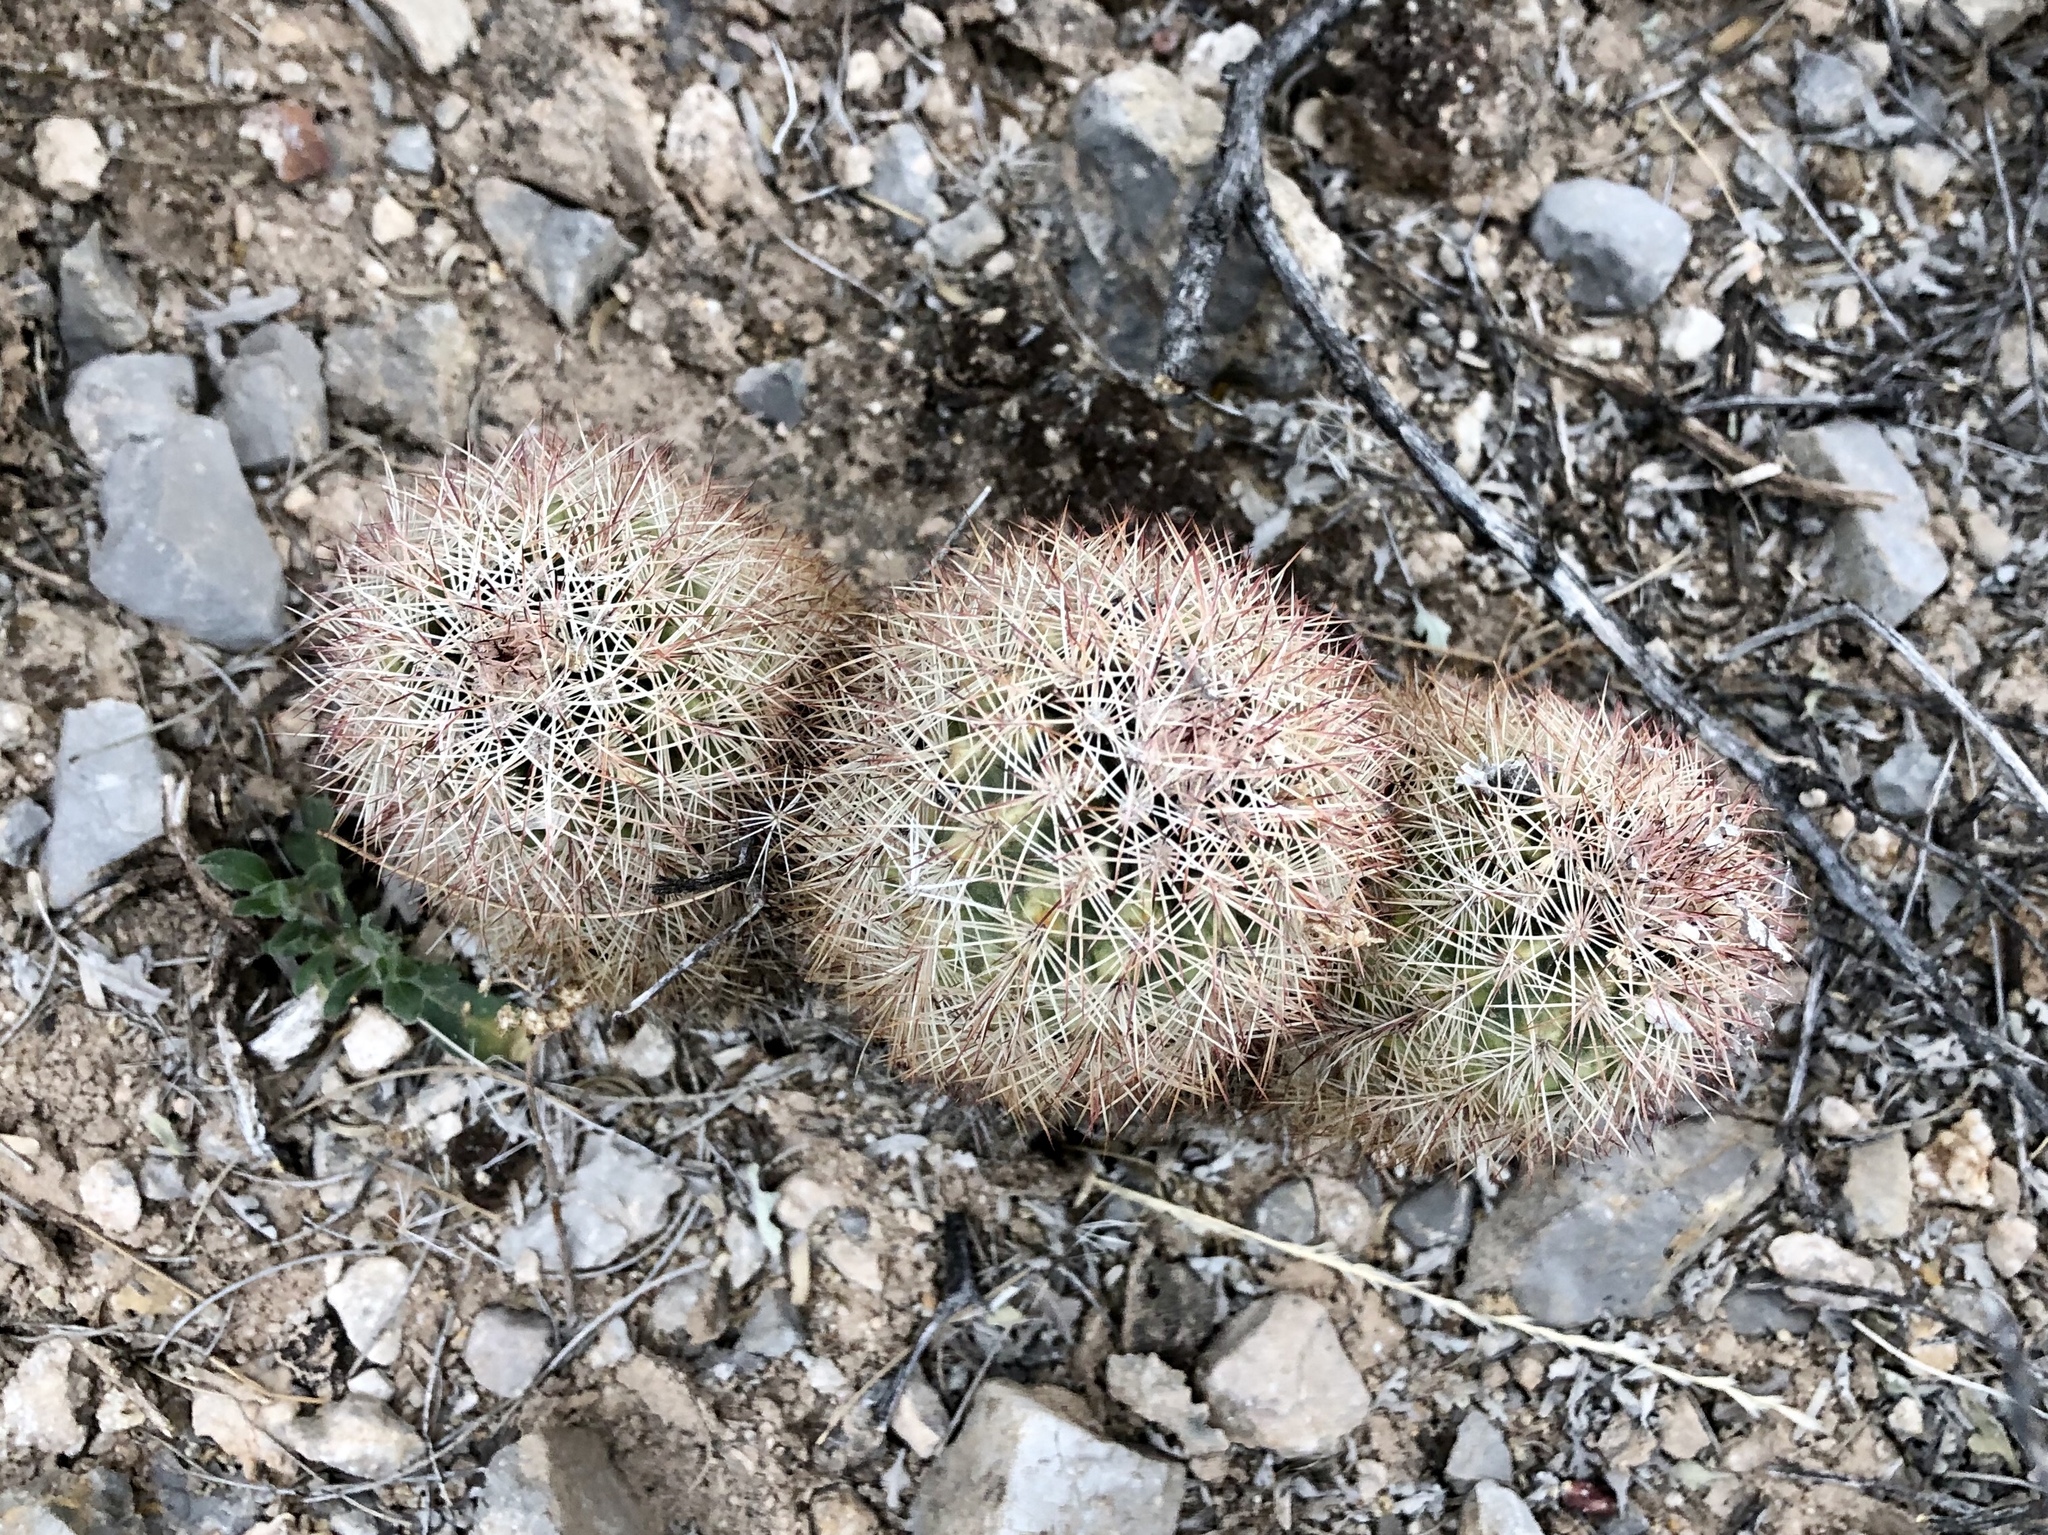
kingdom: Plantae
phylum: Tracheophyta
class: Magnoliopsida
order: Caryophyllales
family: Cactaceae
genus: Echinocereus
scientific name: Echinocereus roetteri
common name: Lloyd's hedgehog cactus
